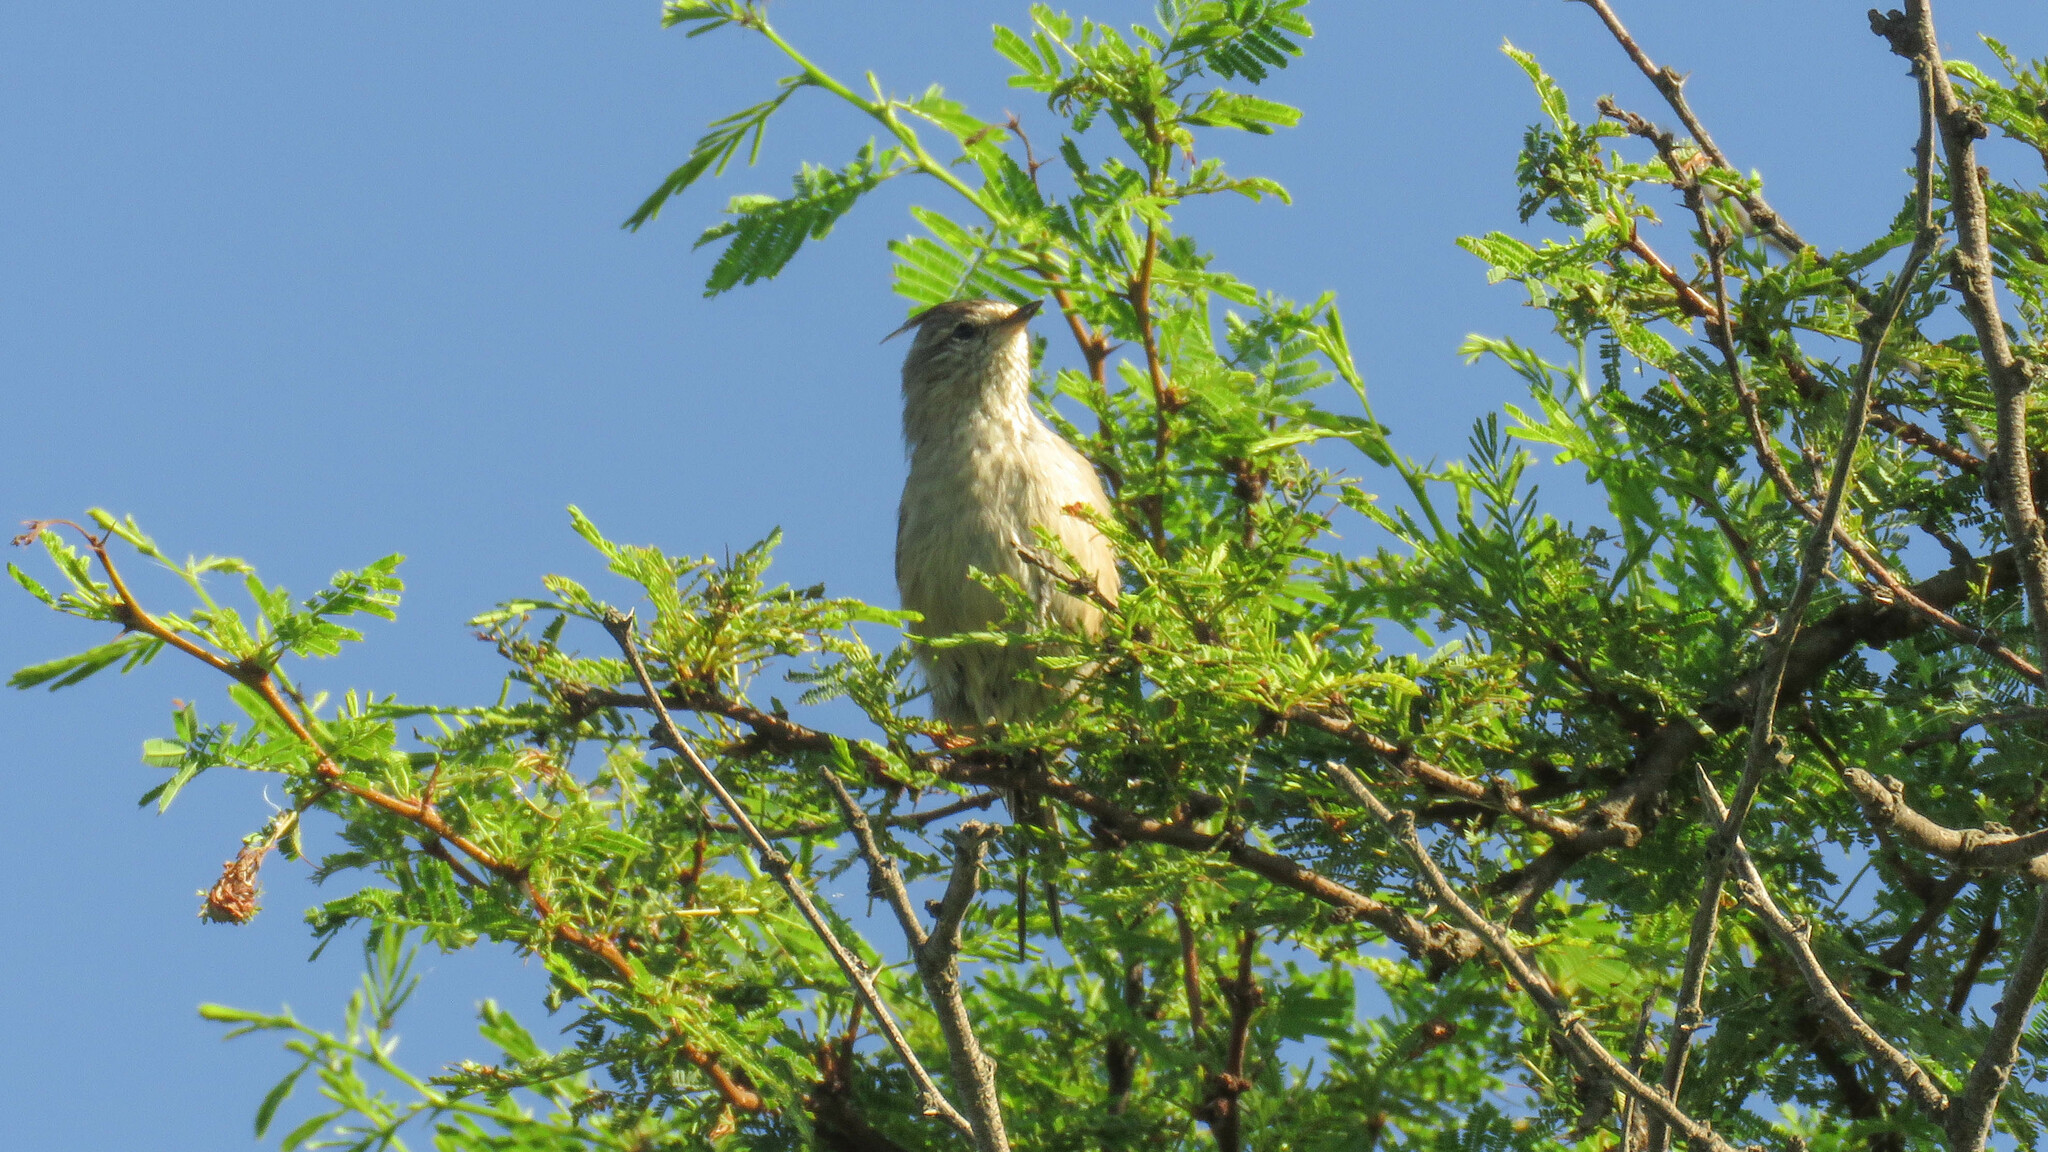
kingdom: Animalia
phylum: Chordata
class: Aves
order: Passeriformes
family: Furnariidae
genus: Leptasthenura
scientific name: Leptasthenura platensis
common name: Tufted tit-spinetail
